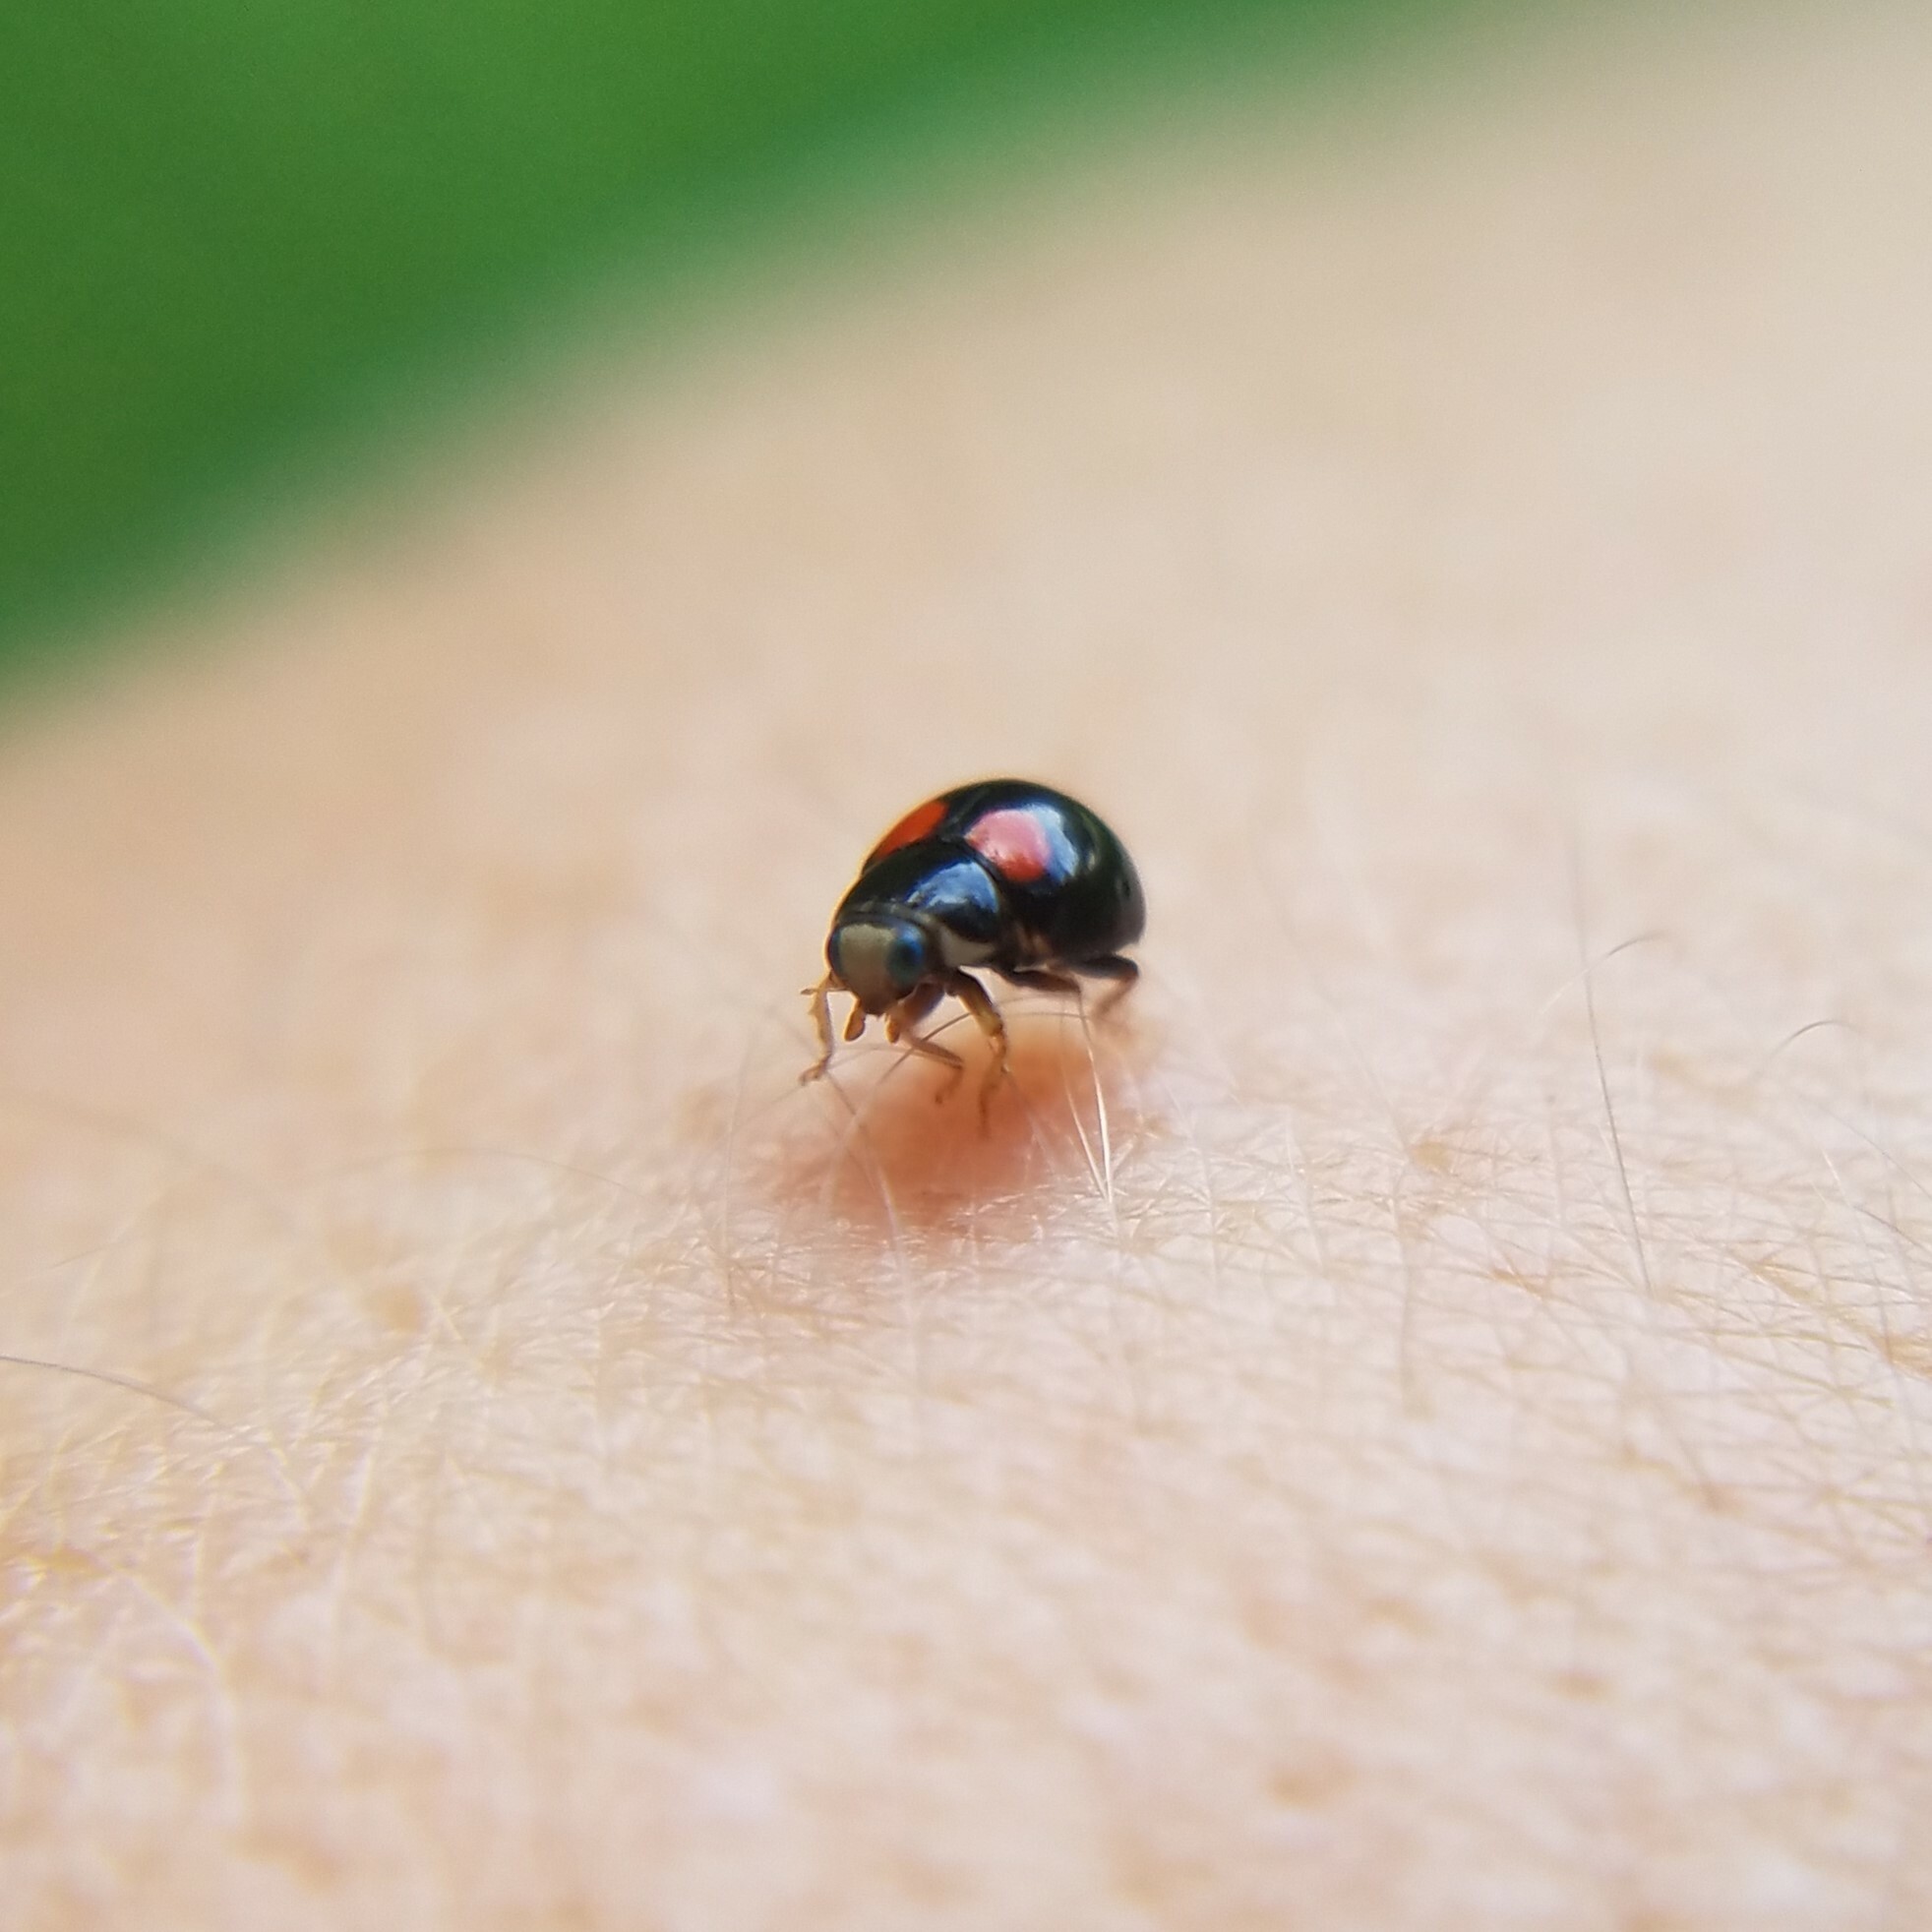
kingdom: Animalia
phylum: Arthropoda
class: Insecta
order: Coleoptera
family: Coccinellidae
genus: Brachiacantha
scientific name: Brachiacantha quadripunctata
